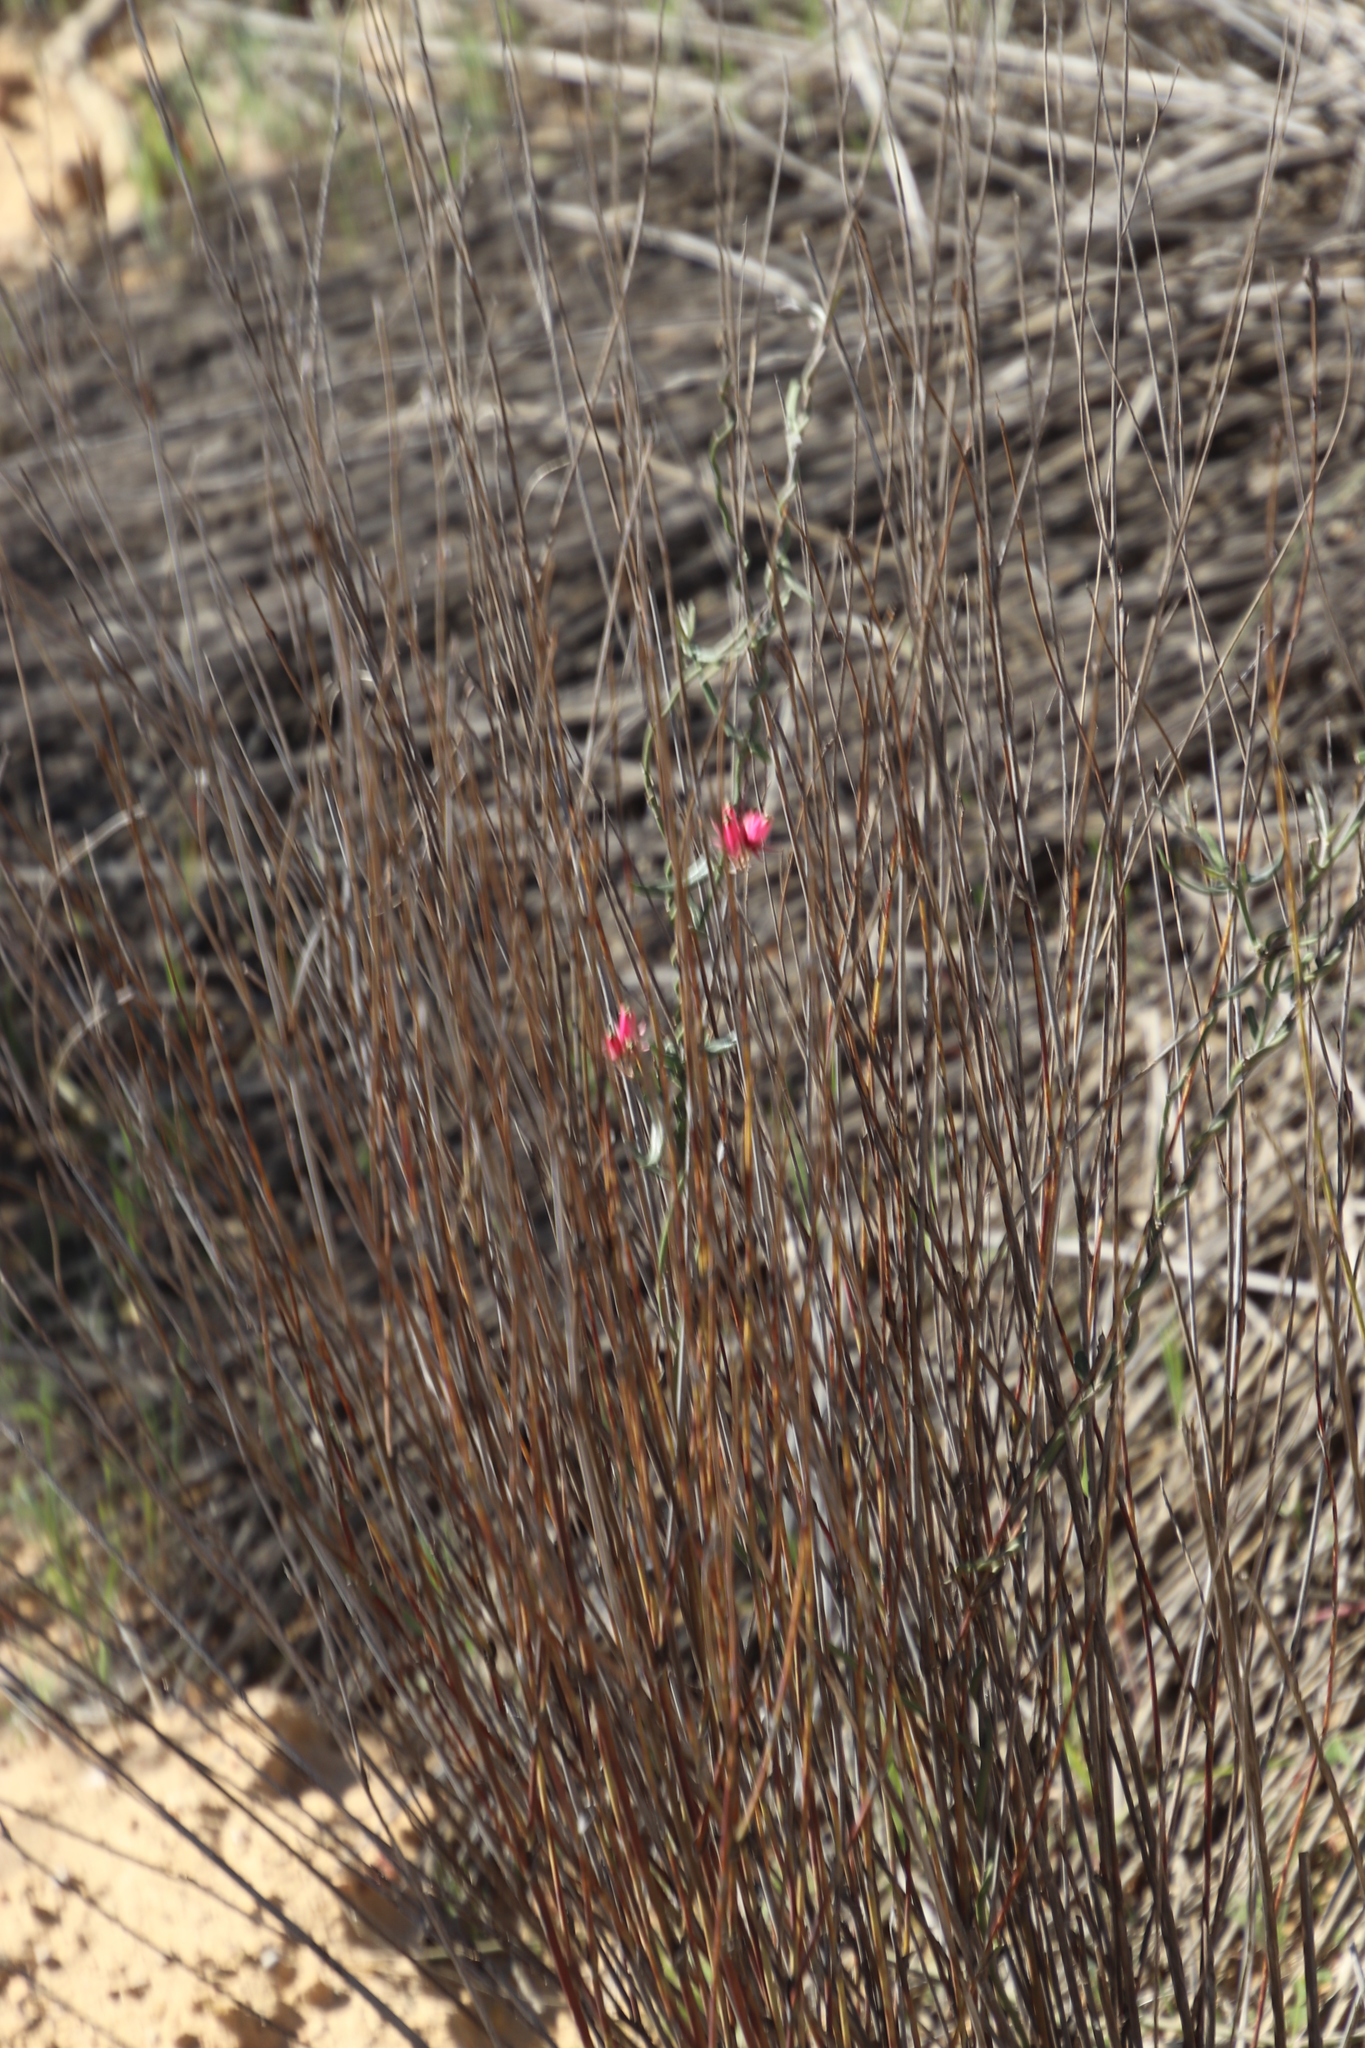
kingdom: Plantae
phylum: Tracheophyta
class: Magnoliopsida
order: Gentianales
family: Apocynaceae
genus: Microloma
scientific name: Microloma sagittatum
